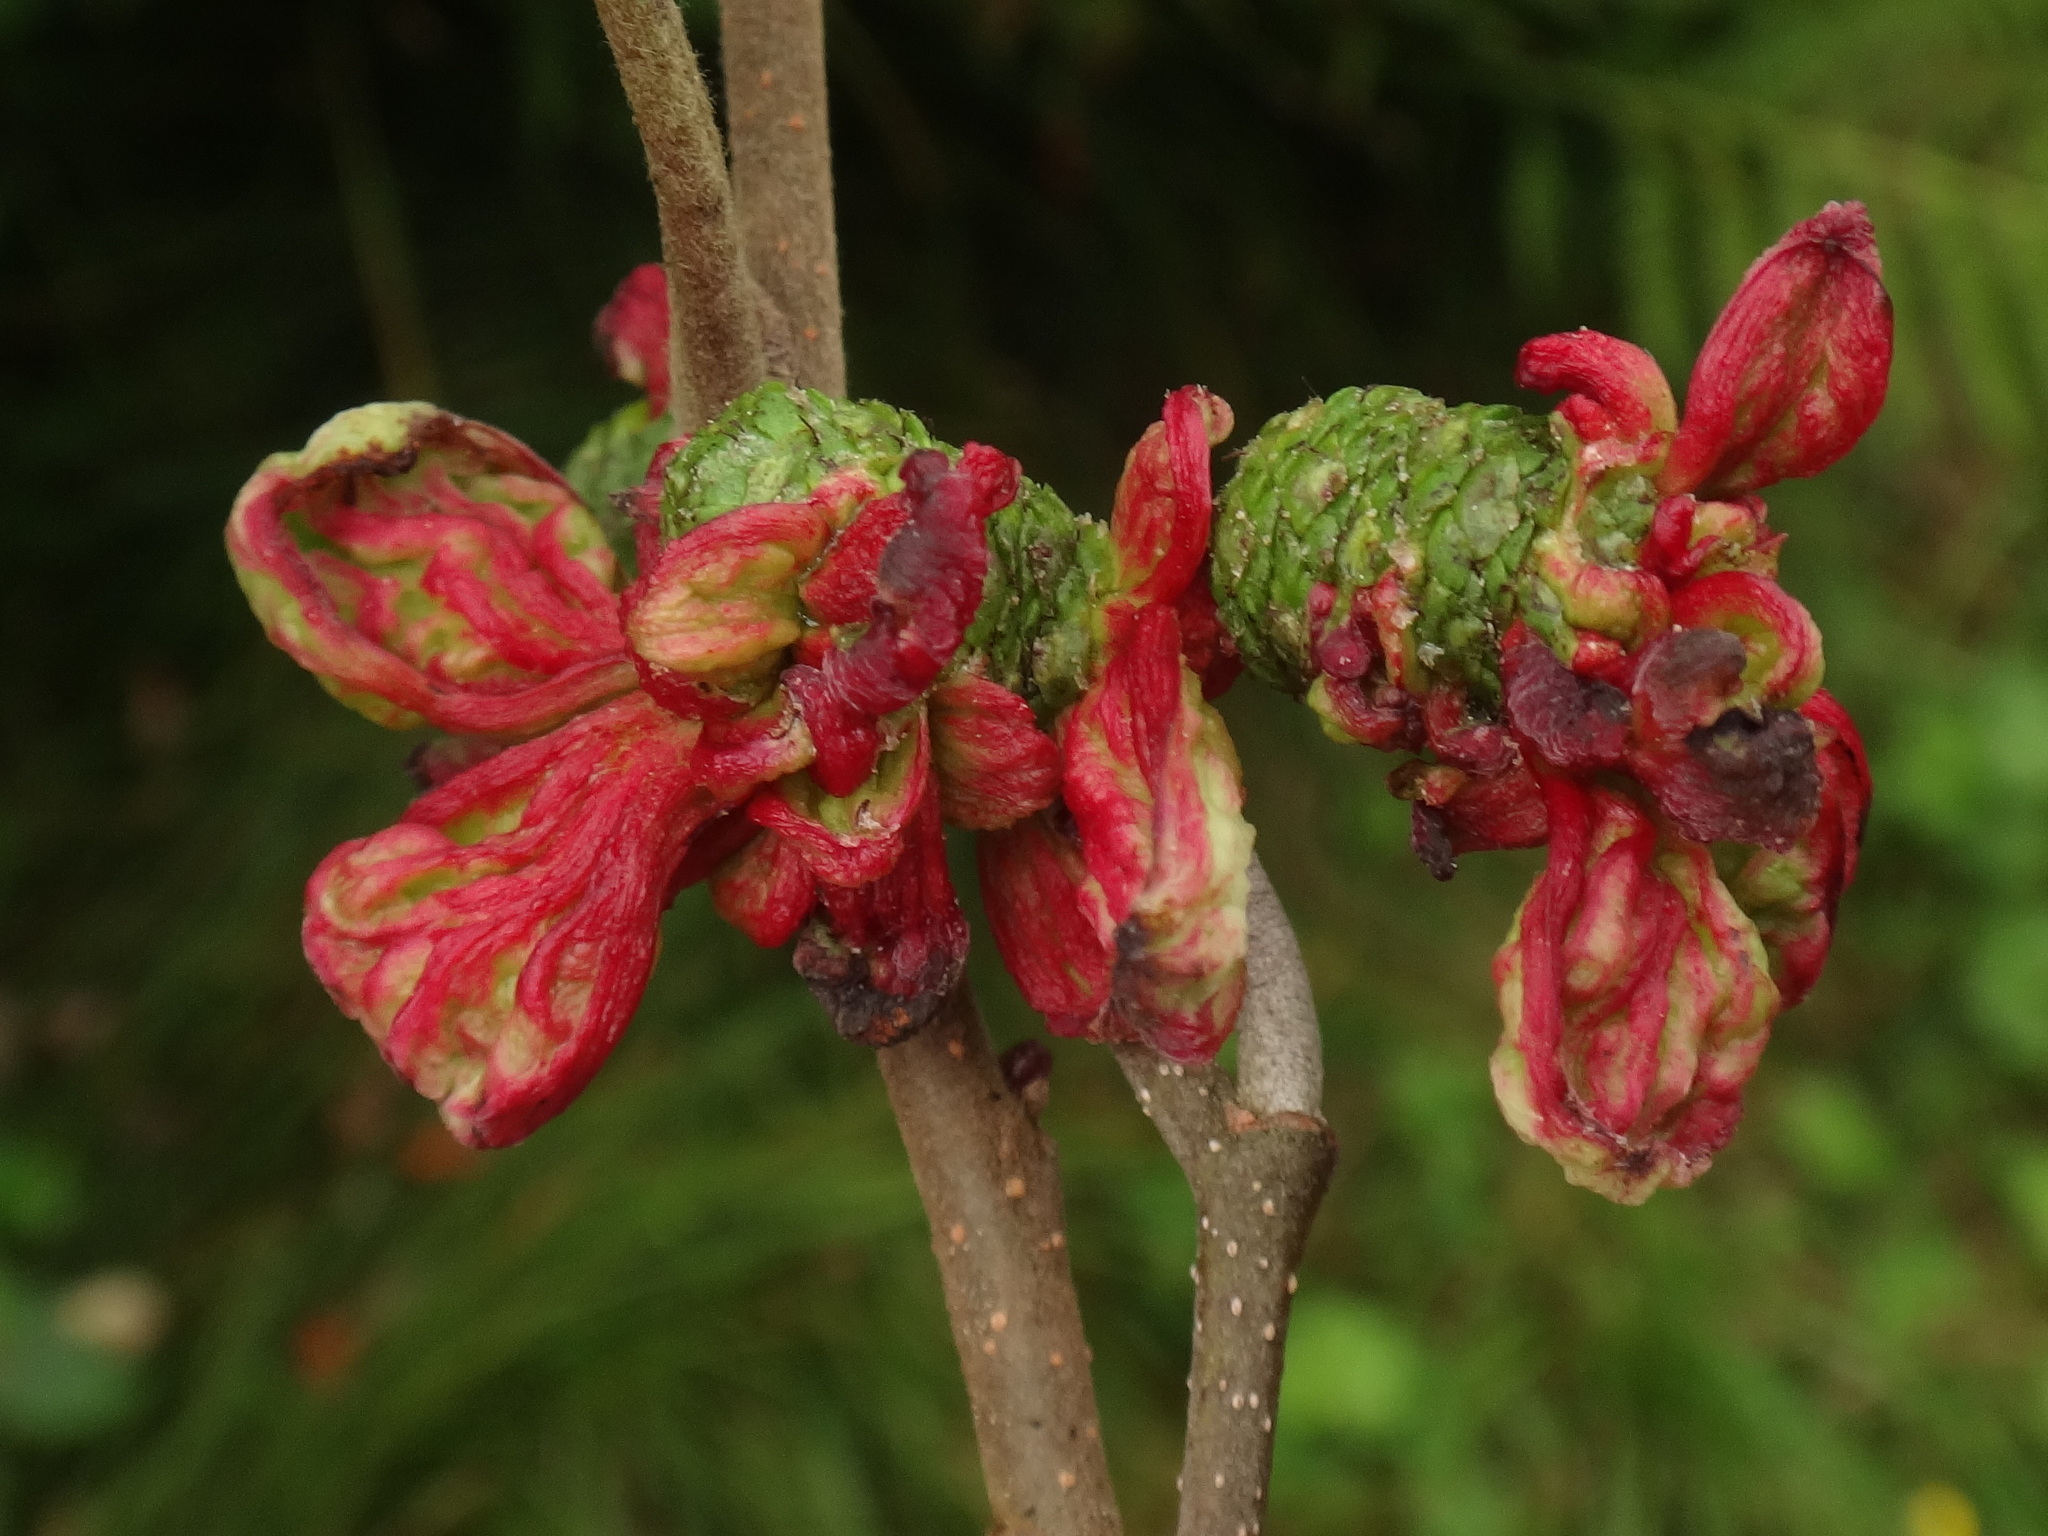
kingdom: Fungi
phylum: Ascomycota
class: Taphrinomycetes
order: Taphrinales
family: Taphrinaceae
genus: Taphrina
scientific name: Taphrina alni
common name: Alder tongue
